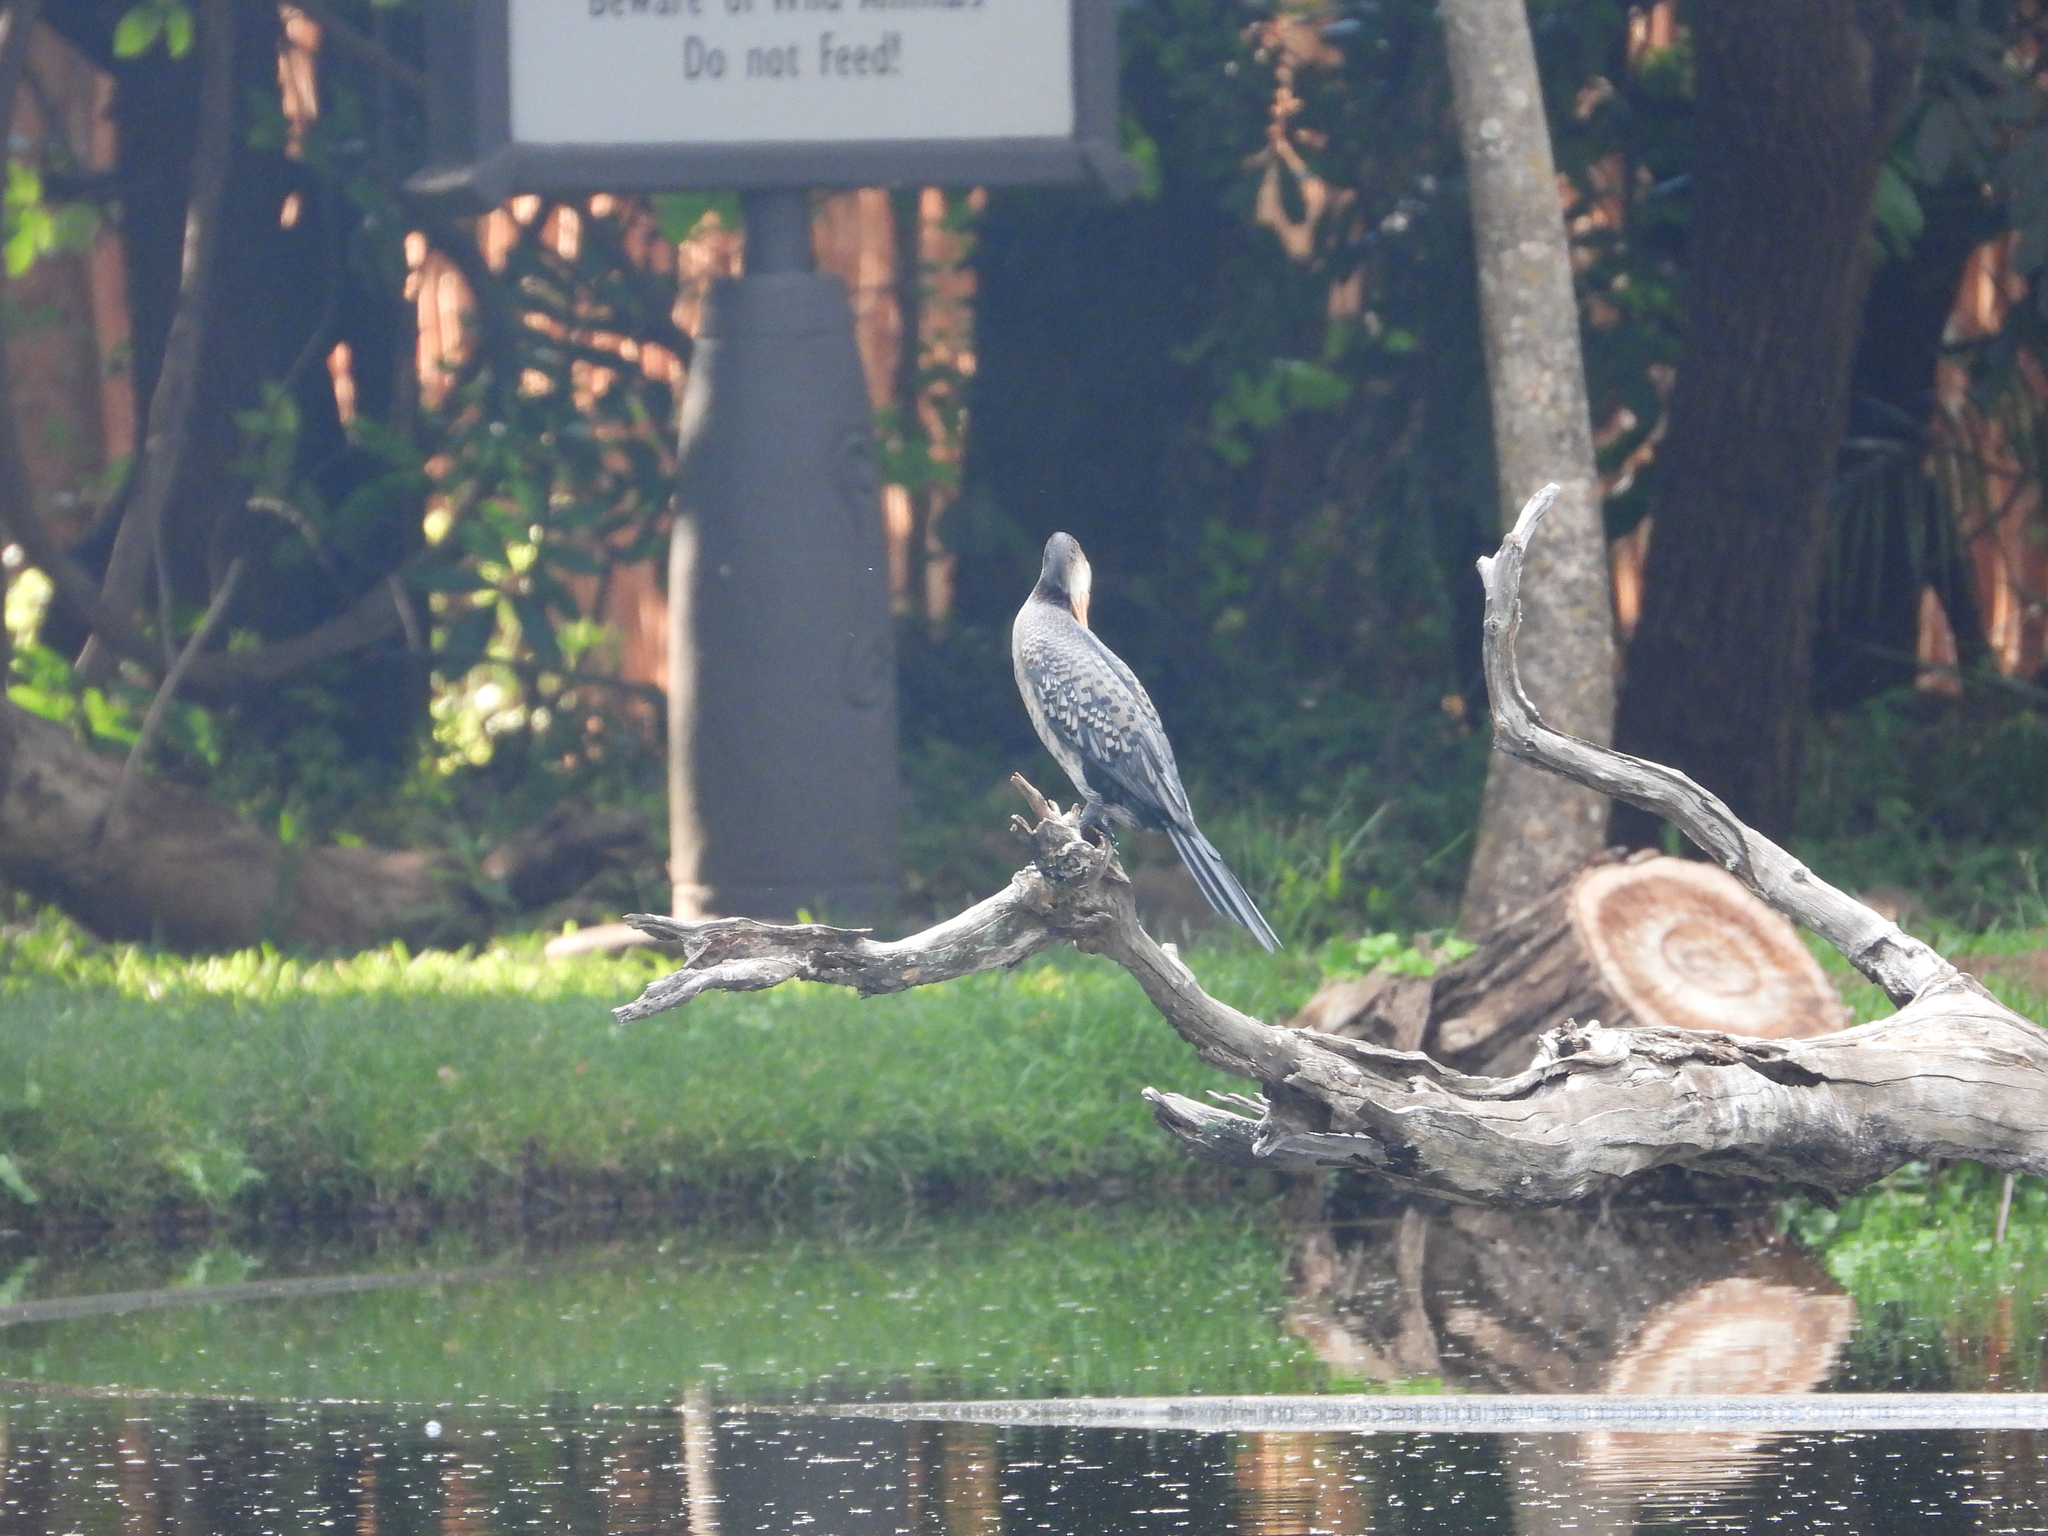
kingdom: Animalia
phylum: Chordata
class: Aves
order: Suliformes
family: Phalacrocoracidae
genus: Microcarbo
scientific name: Microcarbo africanus
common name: Long-tailed cormorant
